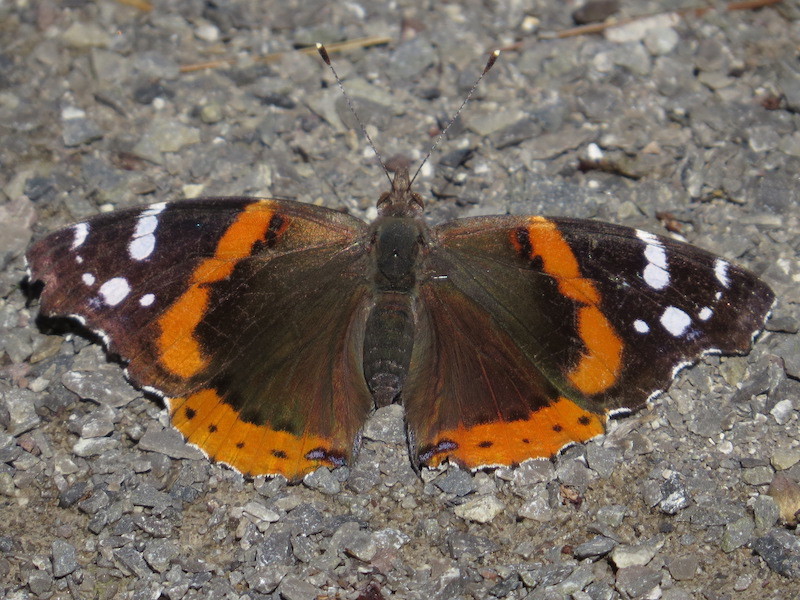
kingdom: Animalia
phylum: Arthropoda
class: Insecta
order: Lepidoptera
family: Nymphalidae
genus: Vanessa
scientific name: Vanessa atalanta
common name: Red admiral
